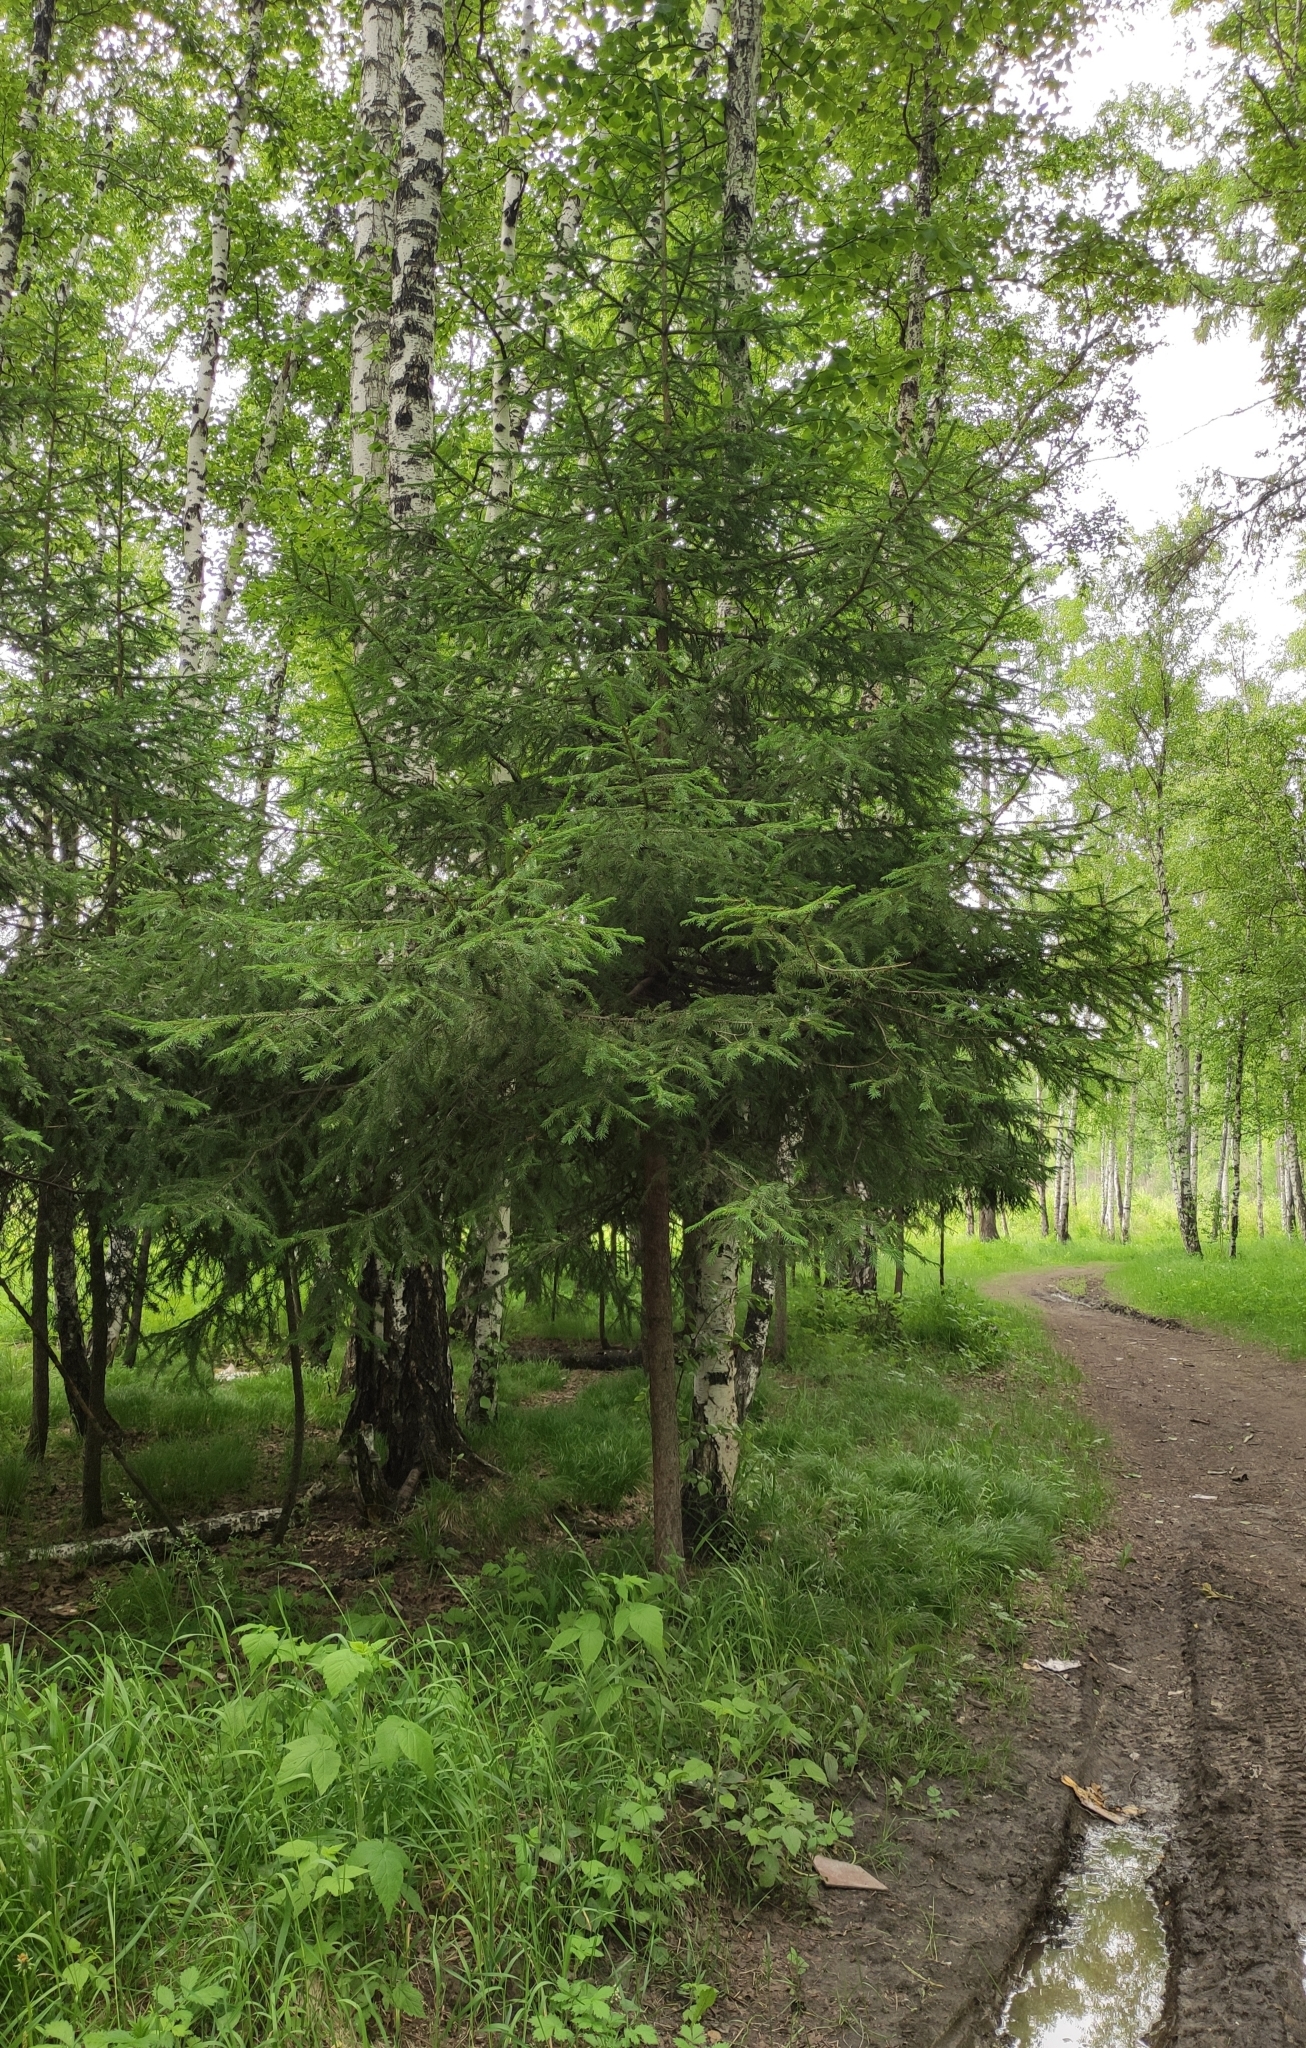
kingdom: Plantae
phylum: Tracheophyta
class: Pinopsida
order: Pinales
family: Pinaceae
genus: Picea
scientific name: Picea obovata
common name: Siberian spruce
